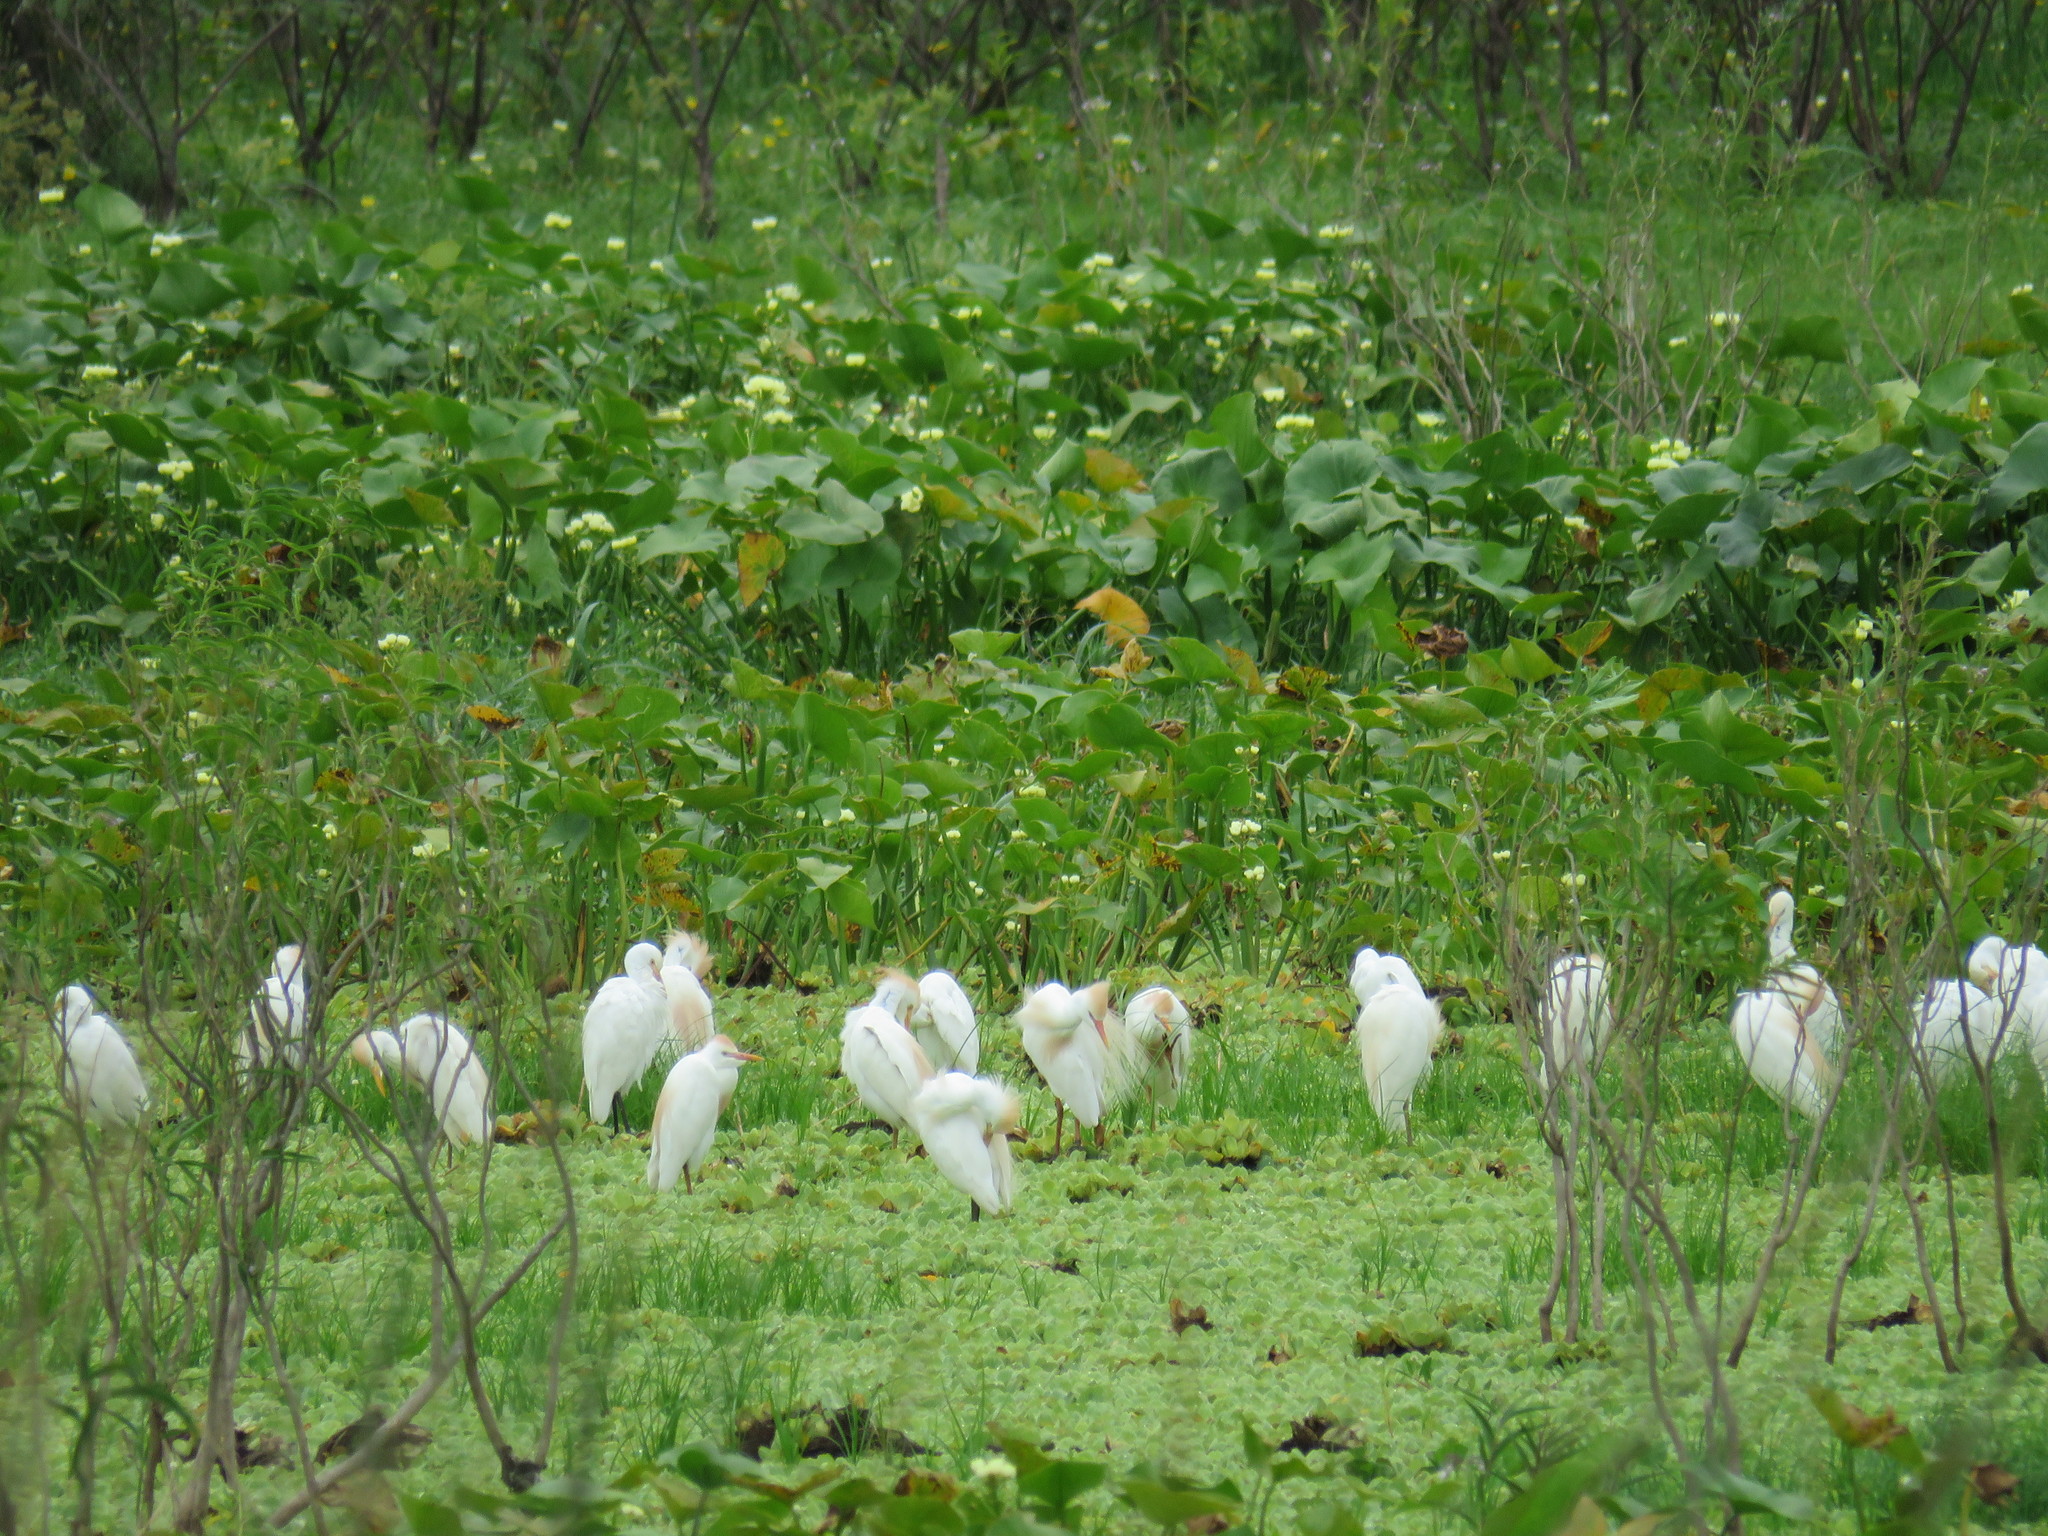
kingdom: Animalia
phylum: Chordata
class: Aves
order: Pelecaniformes
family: Ardeidae
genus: Bubulcus
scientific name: Bubulcus ibis
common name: Cattle egret
